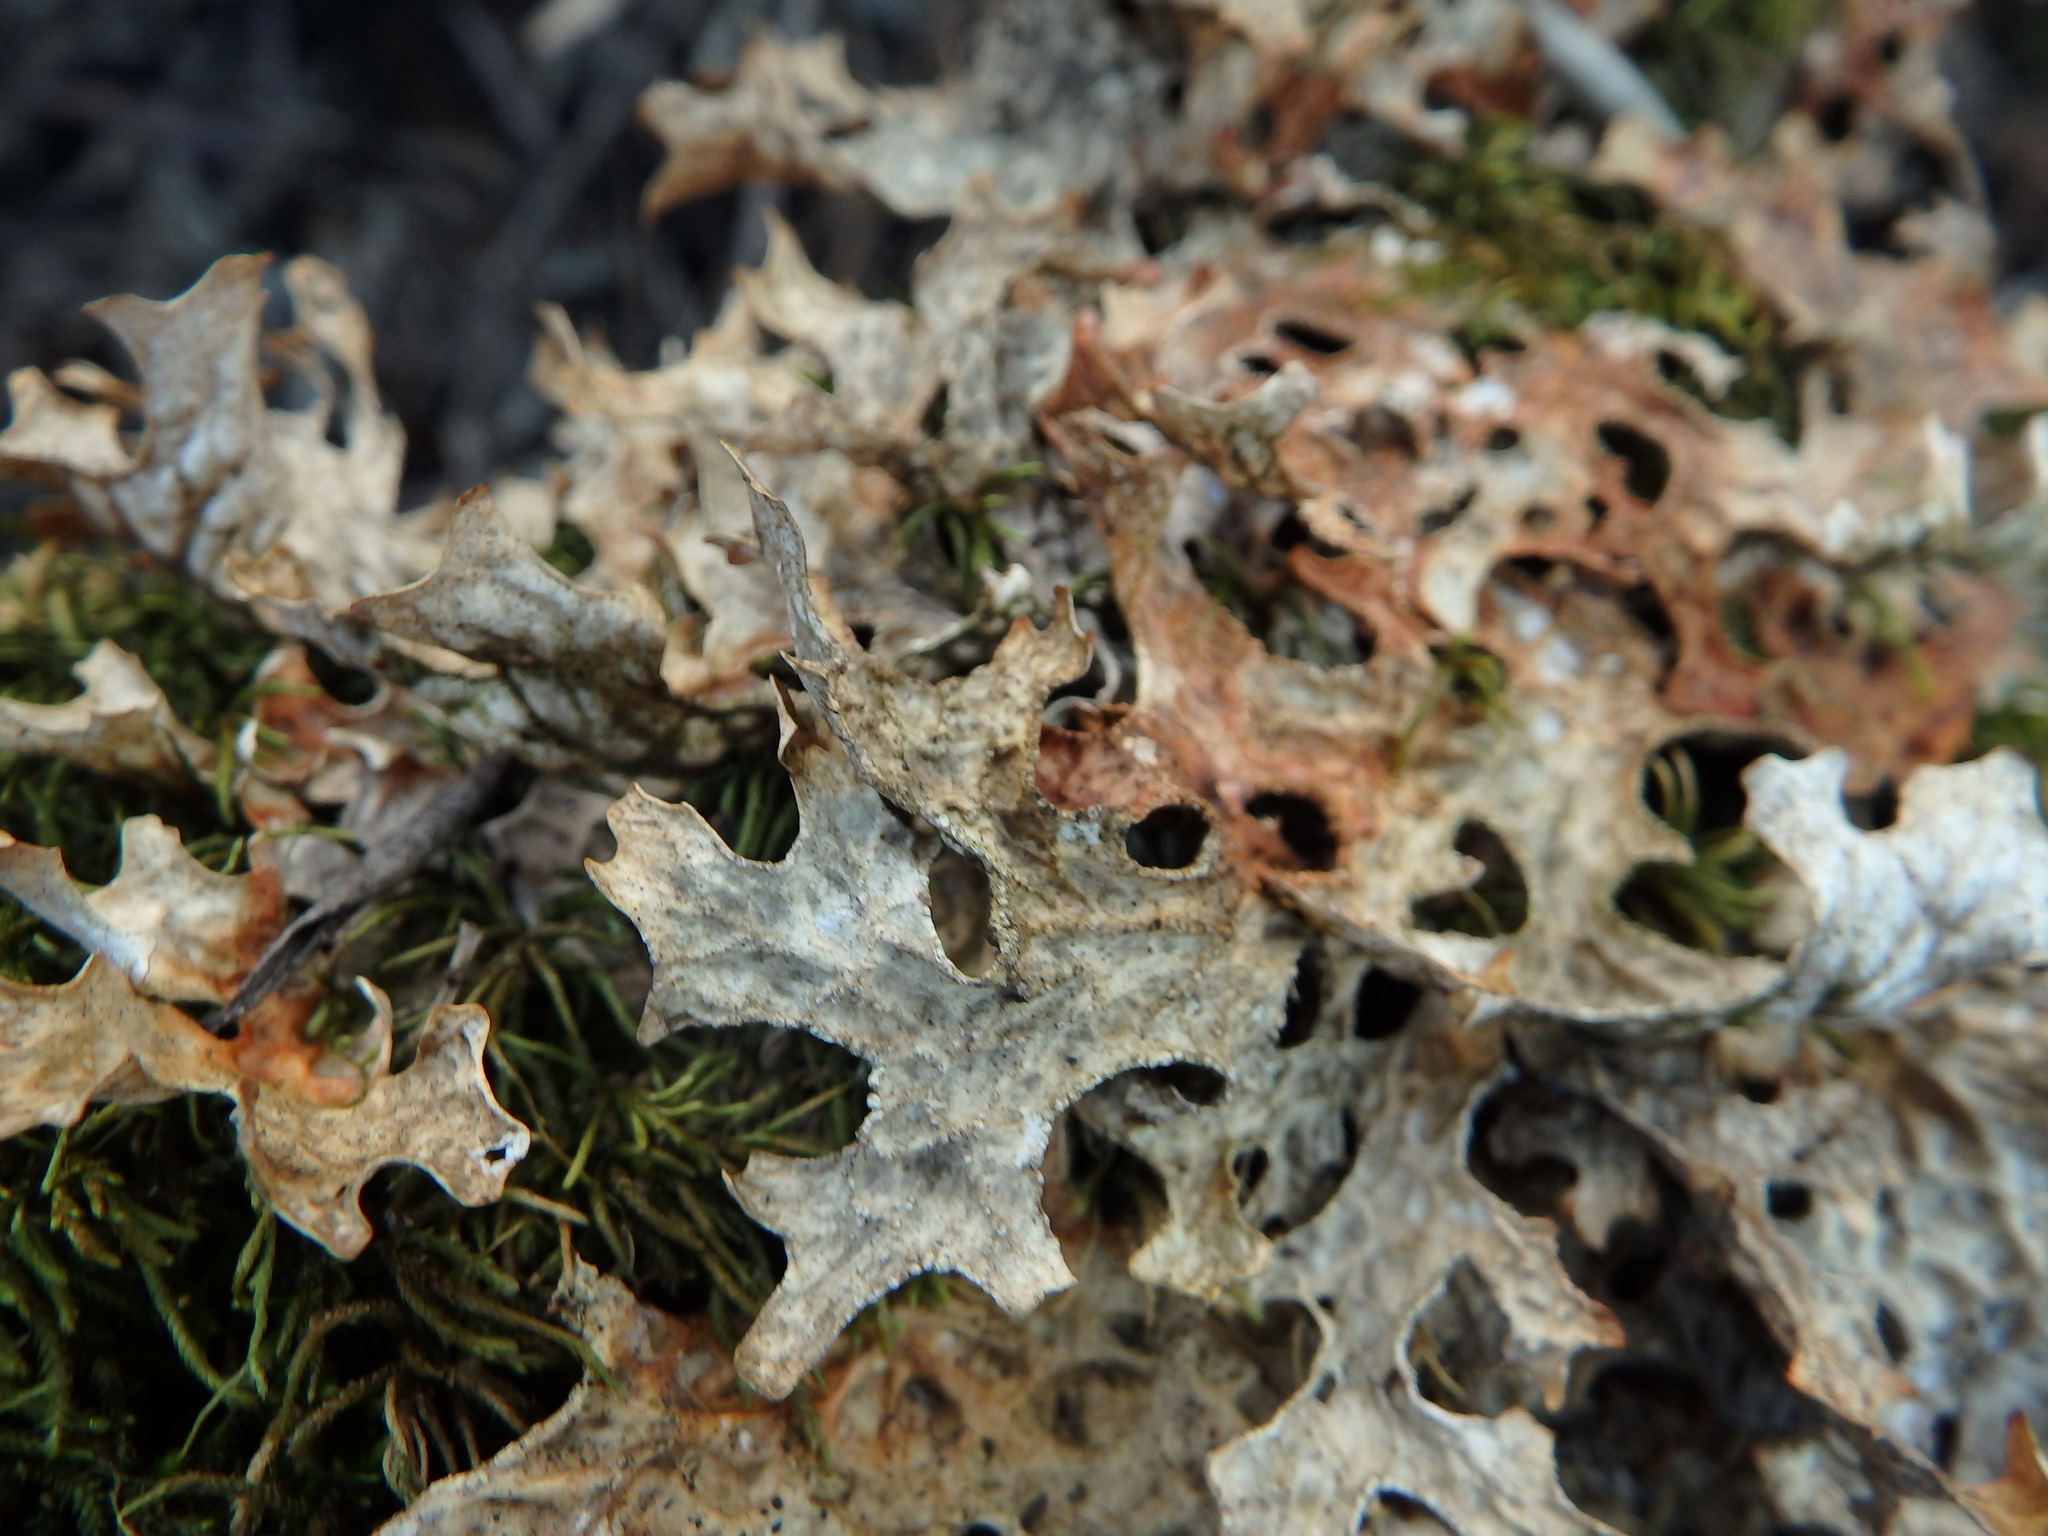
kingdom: Fungi
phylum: Ascomycota
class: Lecanoromycetes
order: Peltigerales
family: Lobariaceae
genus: Lobaria
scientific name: Lobaria pulmonaria
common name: Lungwort
